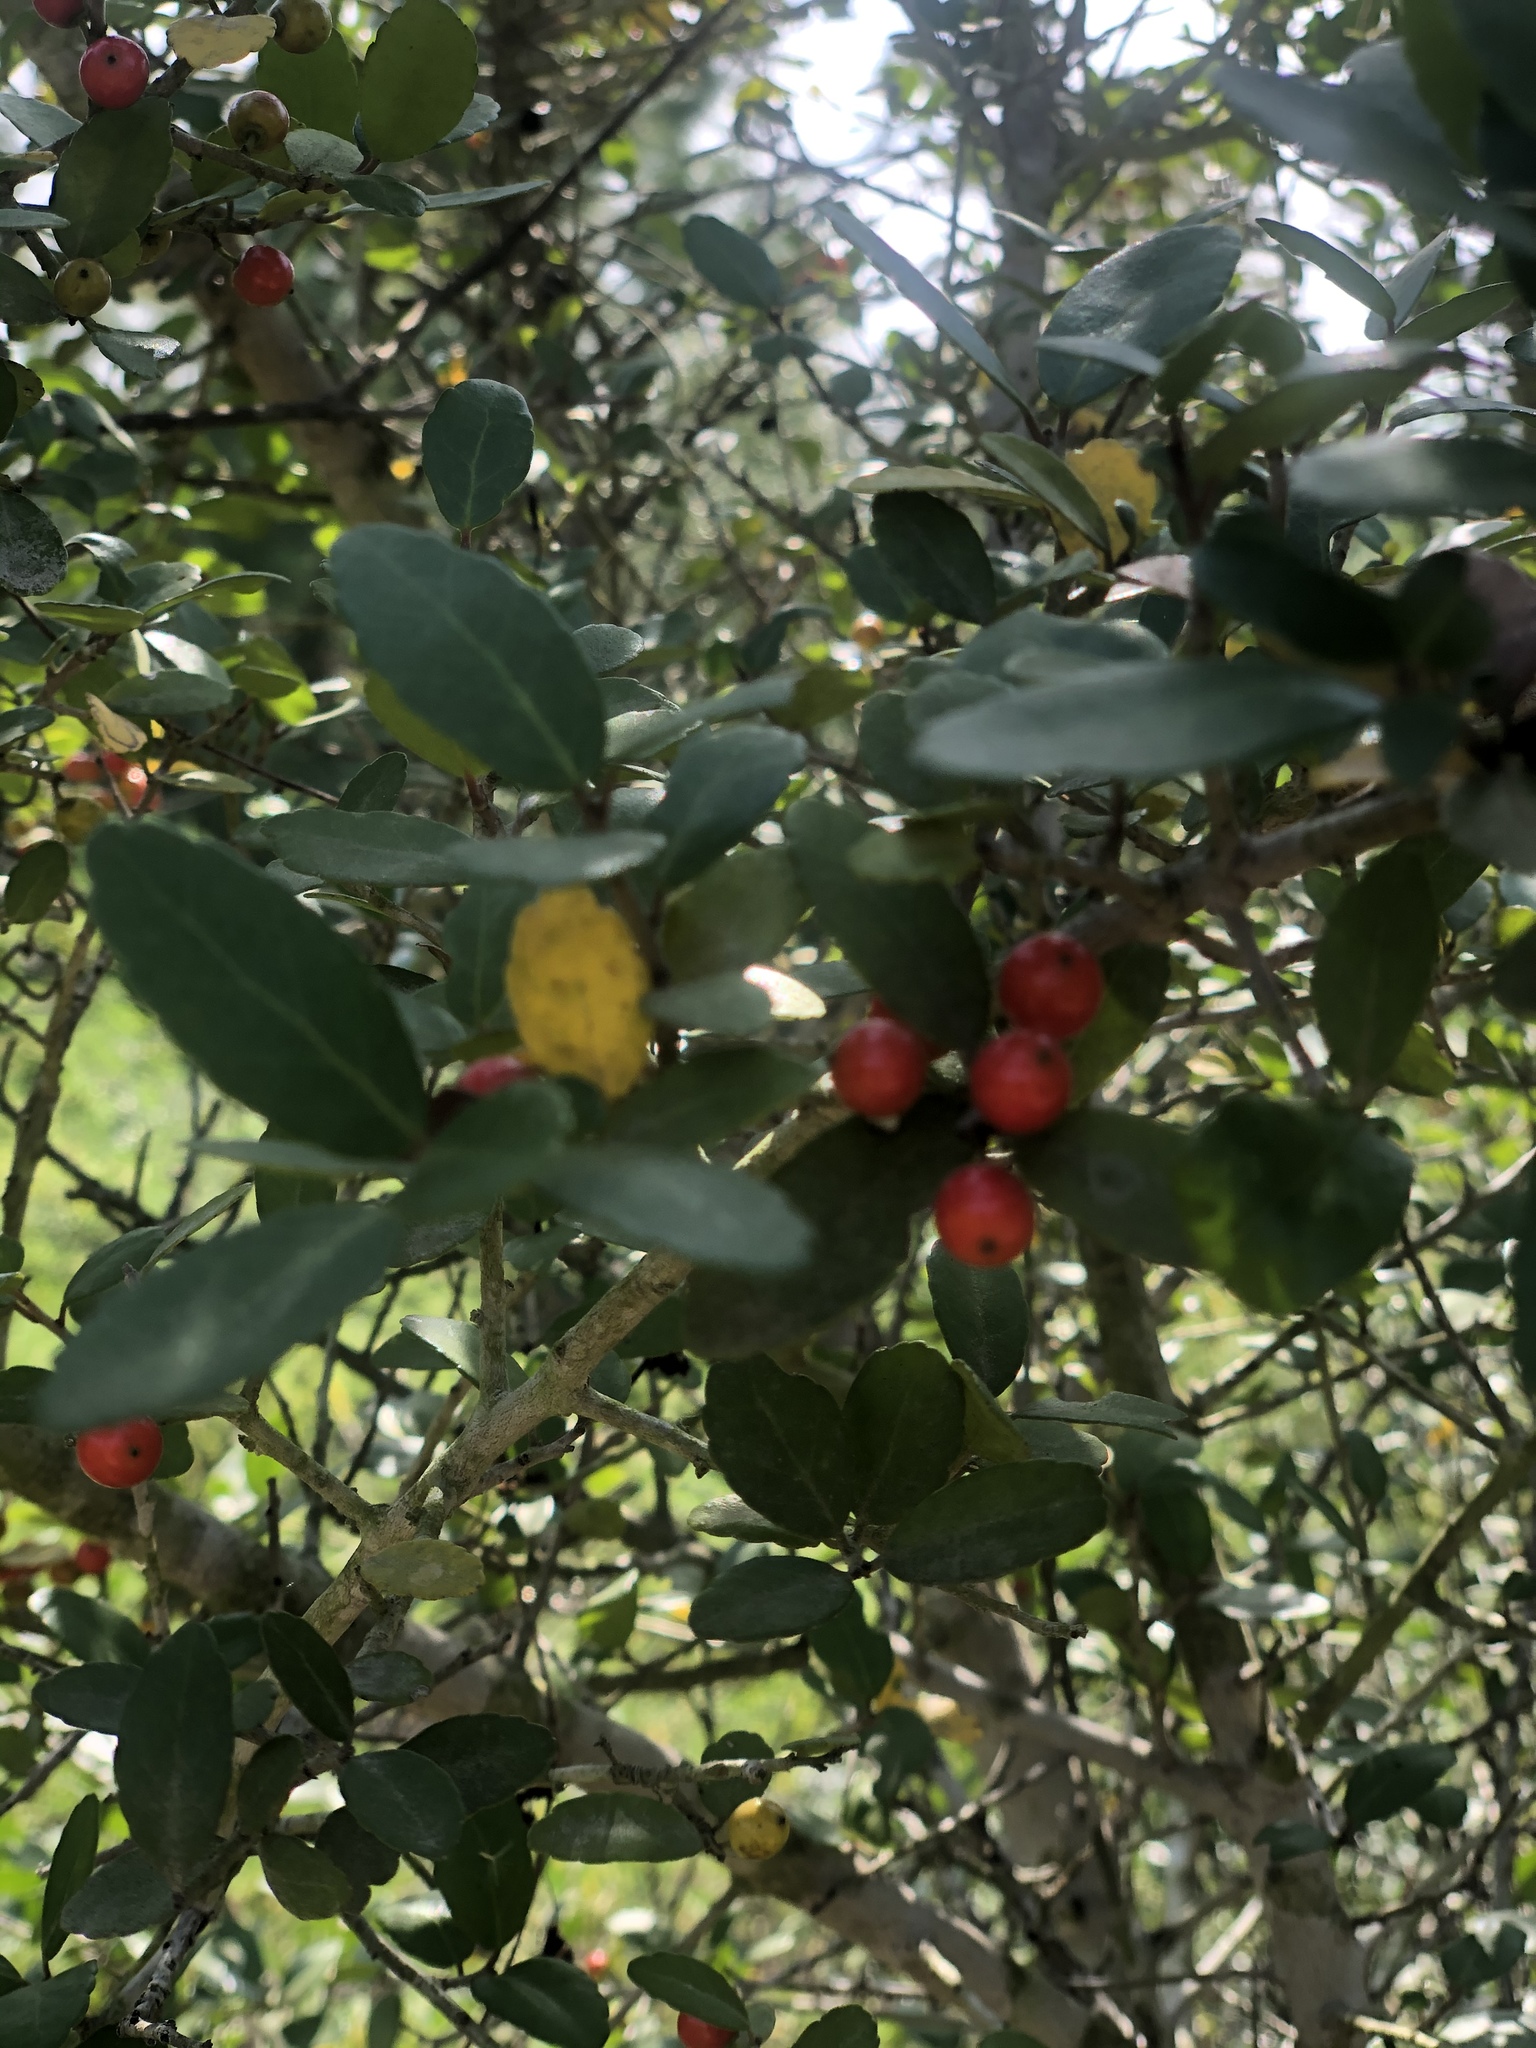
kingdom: Plantae
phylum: Tracheophyta
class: Magnoliopsida
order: Aquifoliales
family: Aquifoliaceae
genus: Ilex
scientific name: Ilex vomitoria
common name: Yaupon holly
